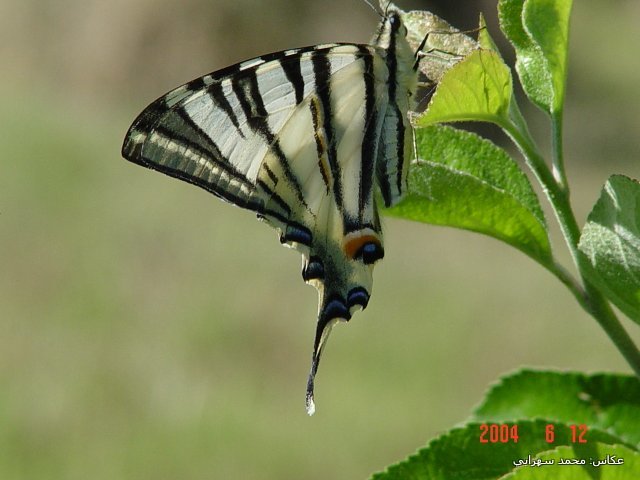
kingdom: Animalia
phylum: Arthropoda
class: Insecta
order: Lepidoptera
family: Papilionidae
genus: Iphiclides
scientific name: Iphiclides podalirius
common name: Scarce swallowtail
